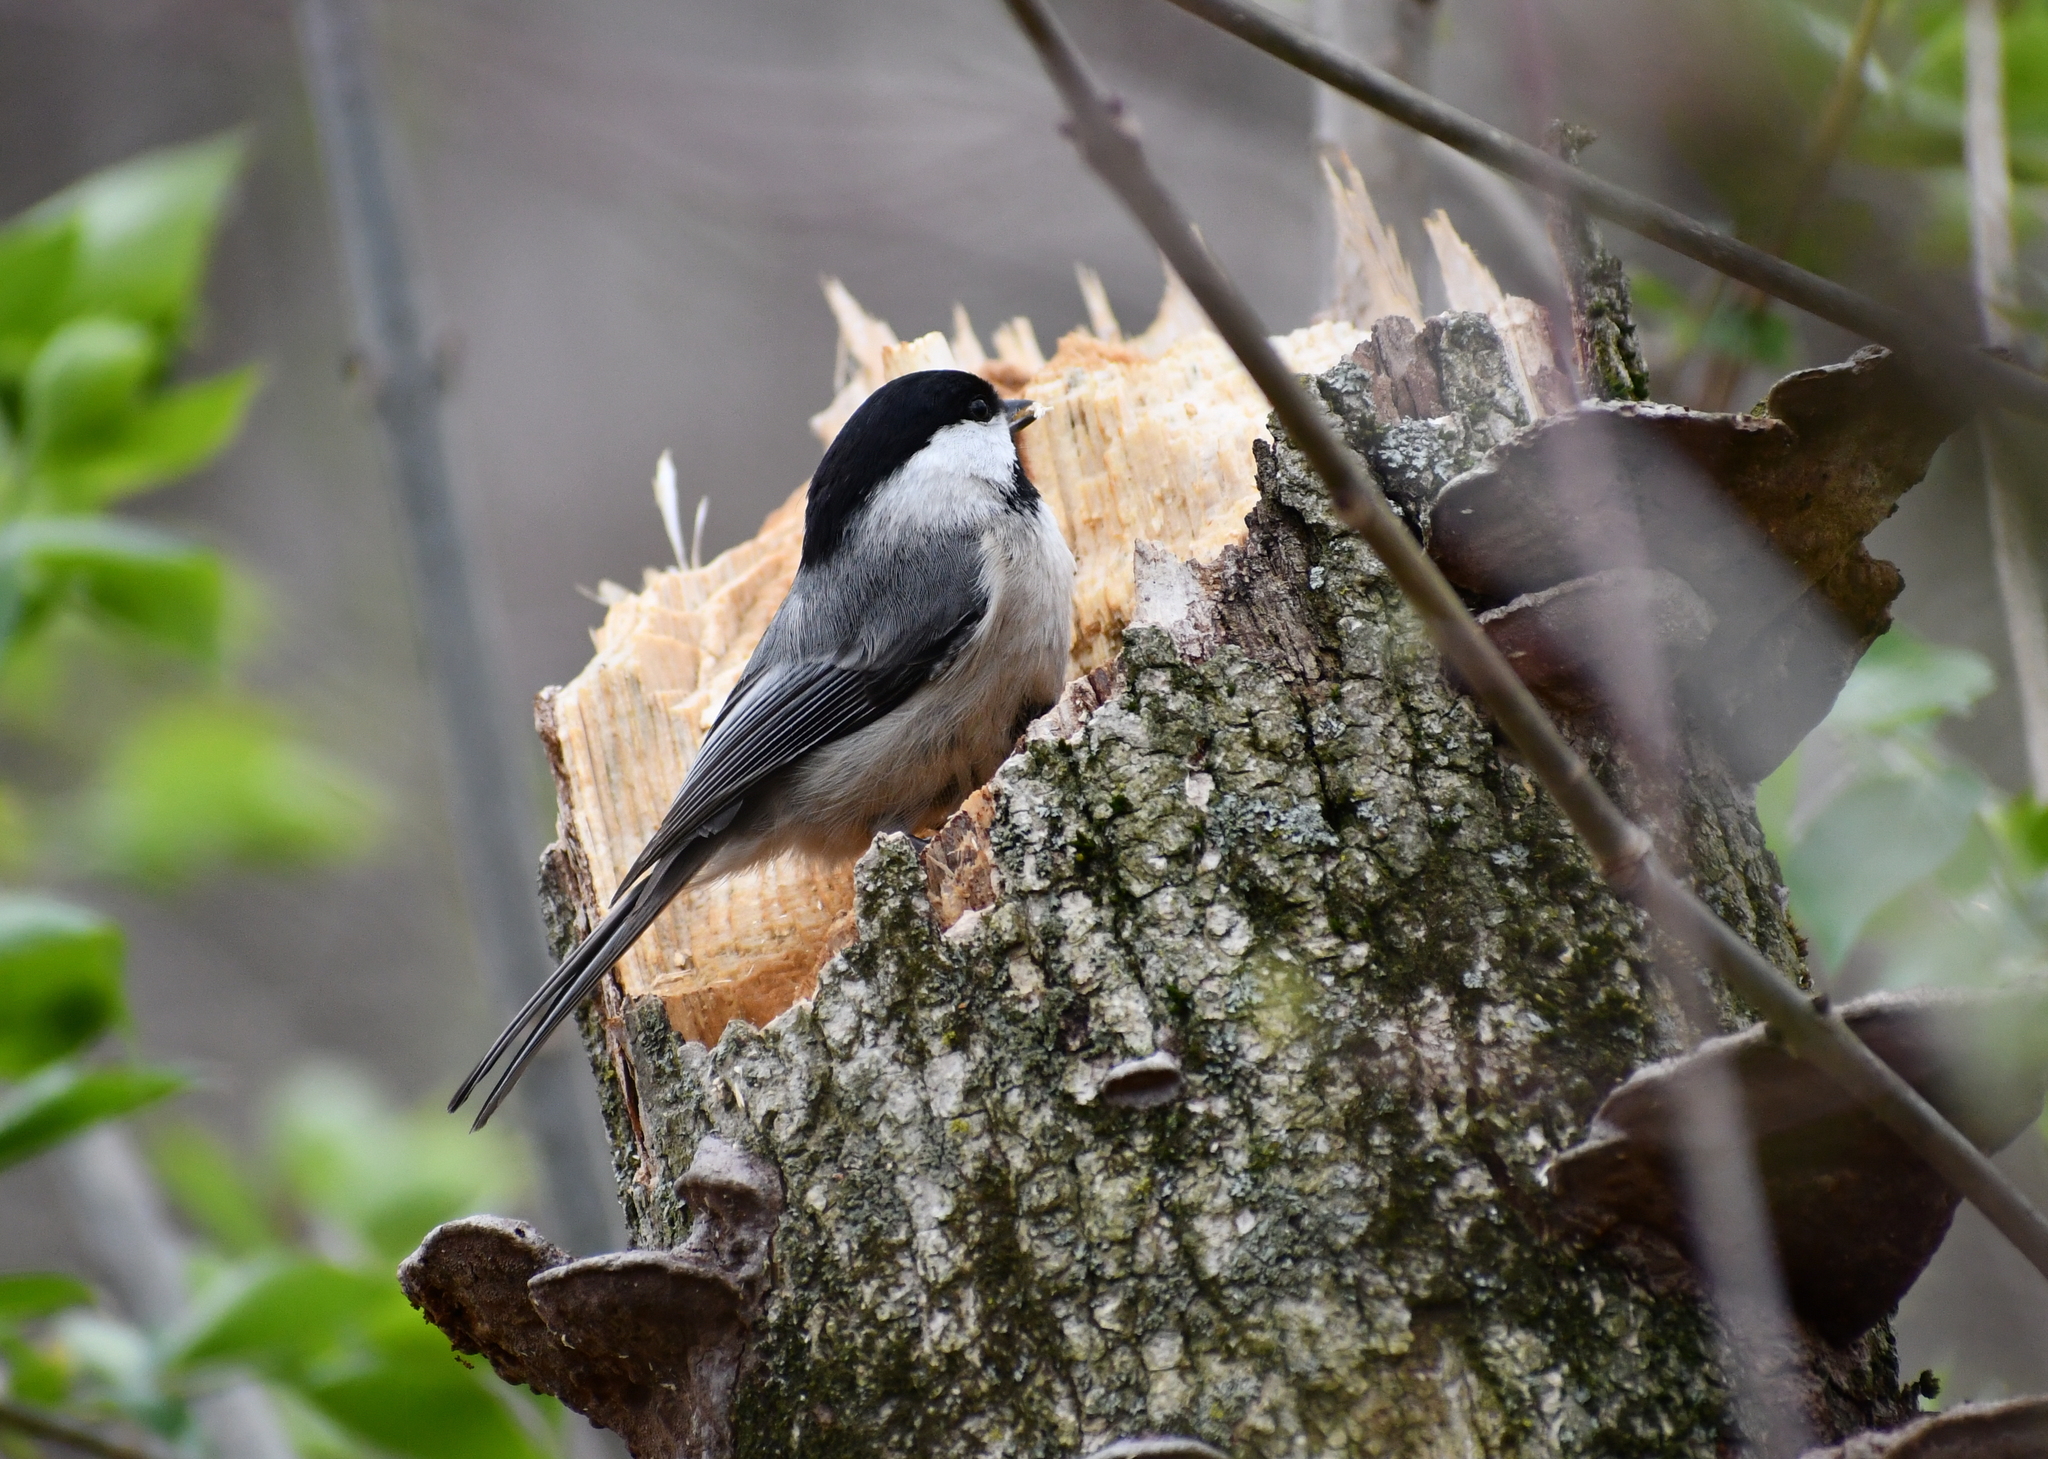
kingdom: Animalia
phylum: Chordata
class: Aves
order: Passeriformes
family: Paridae
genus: Poecile
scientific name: Poecile carolinensis
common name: Carolina chickadee
